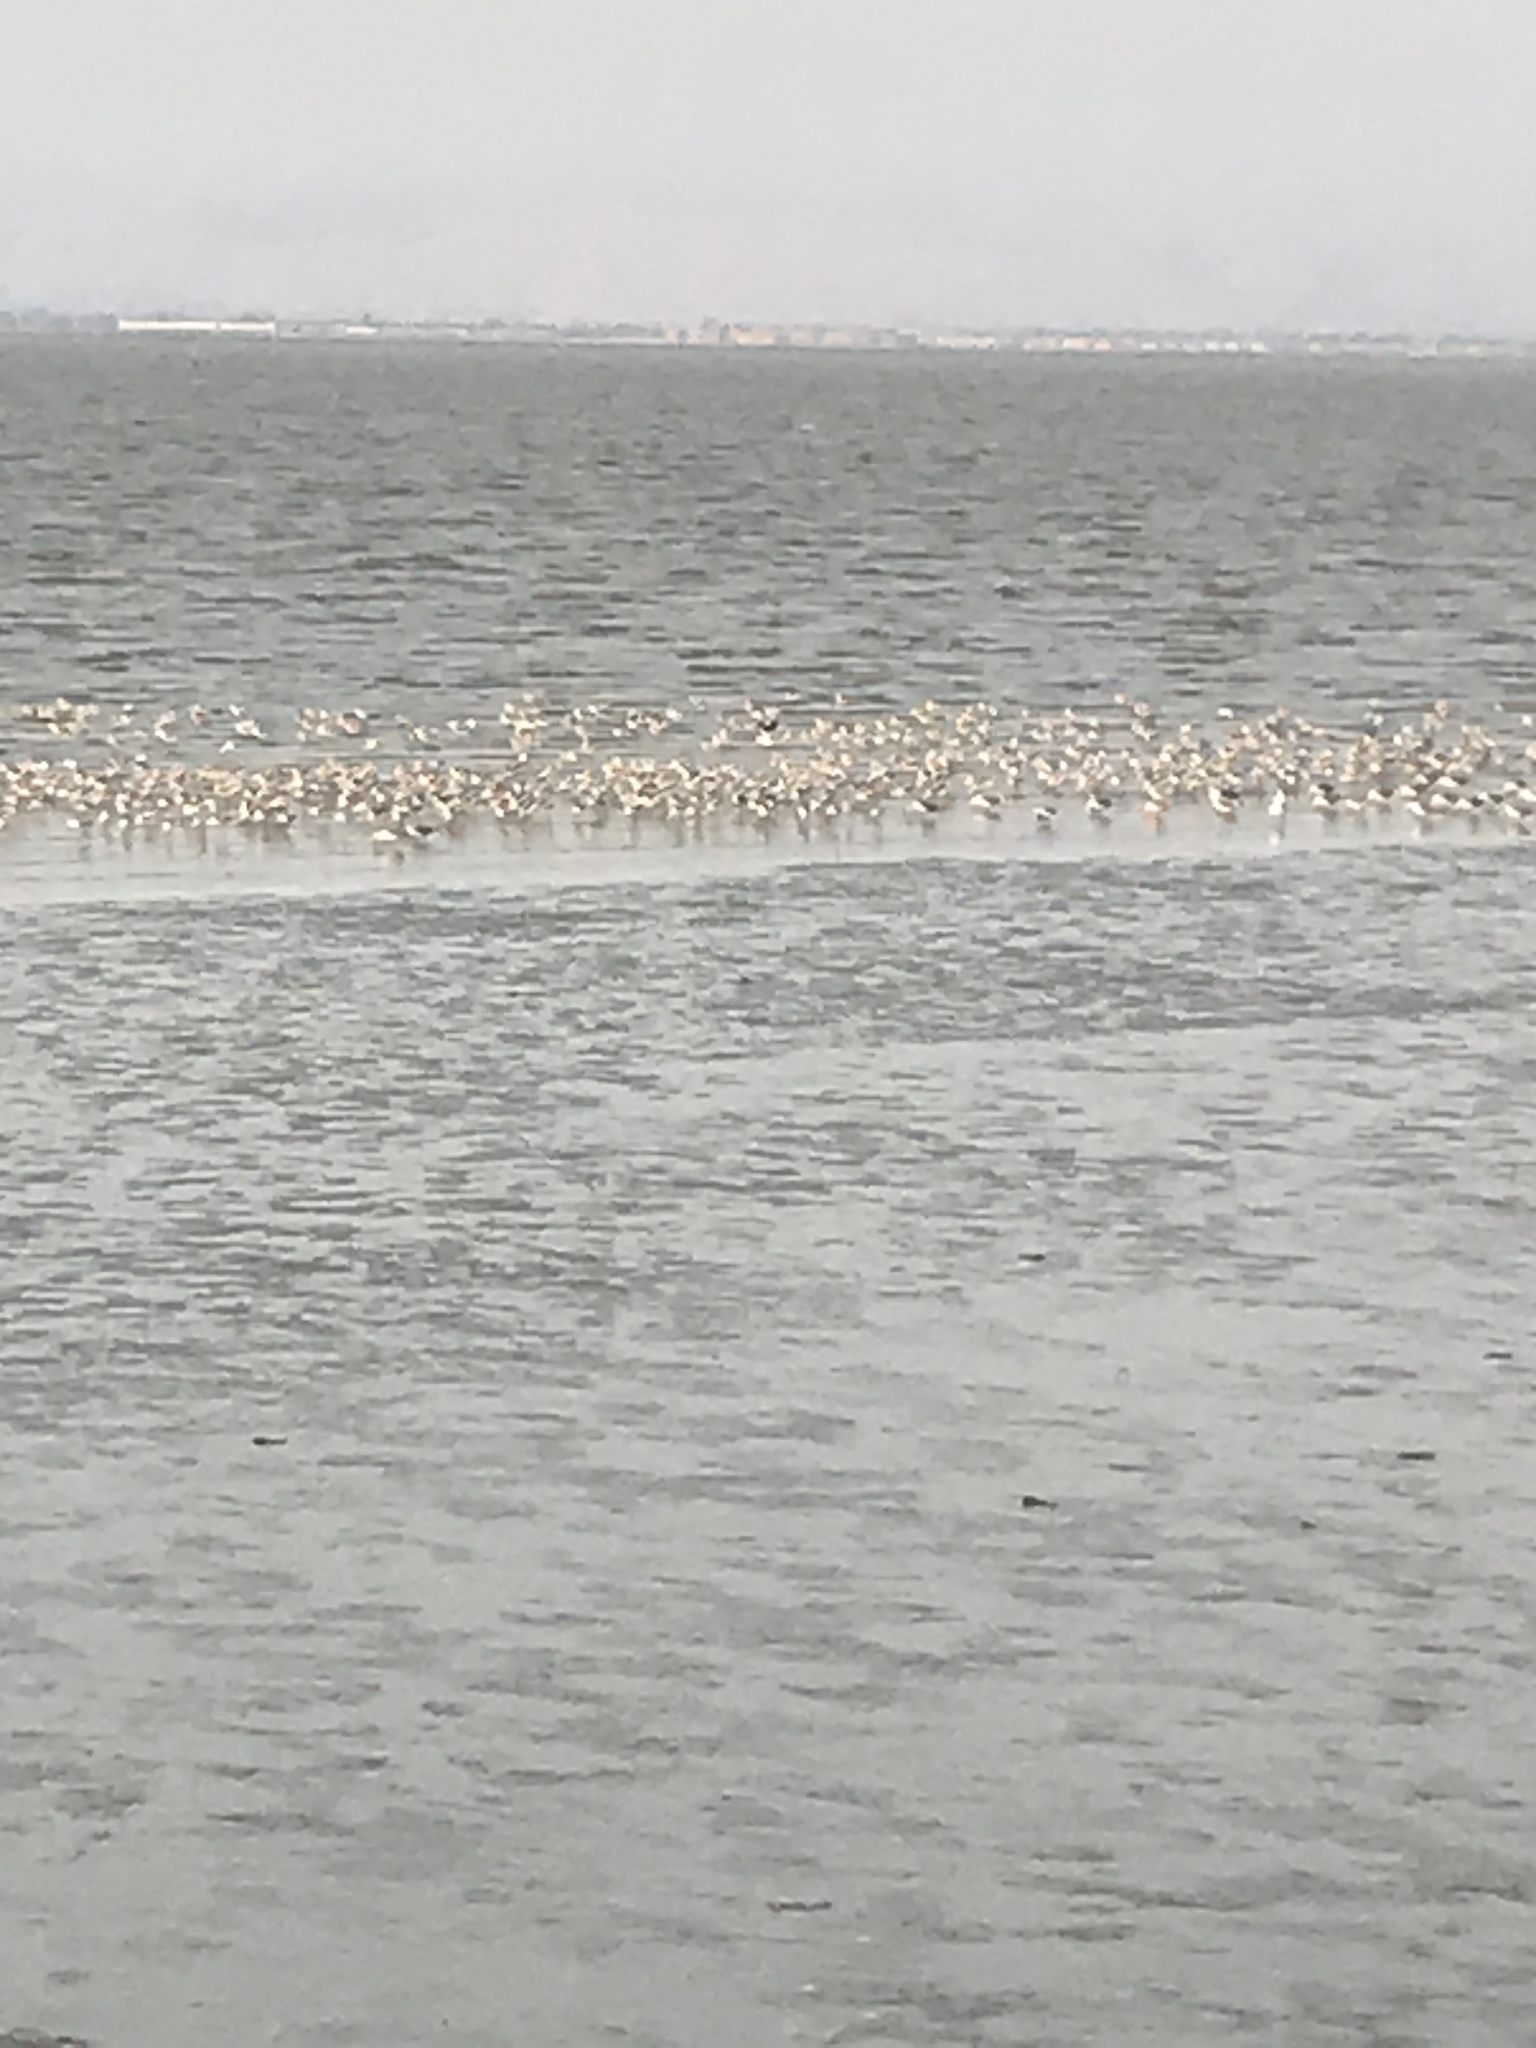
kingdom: Animalia
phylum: Chordata
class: Aves
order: Charadriiformes
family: Recurvirostridae
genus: Recurvirostra
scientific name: Recurvirostra americana
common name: American avocet
